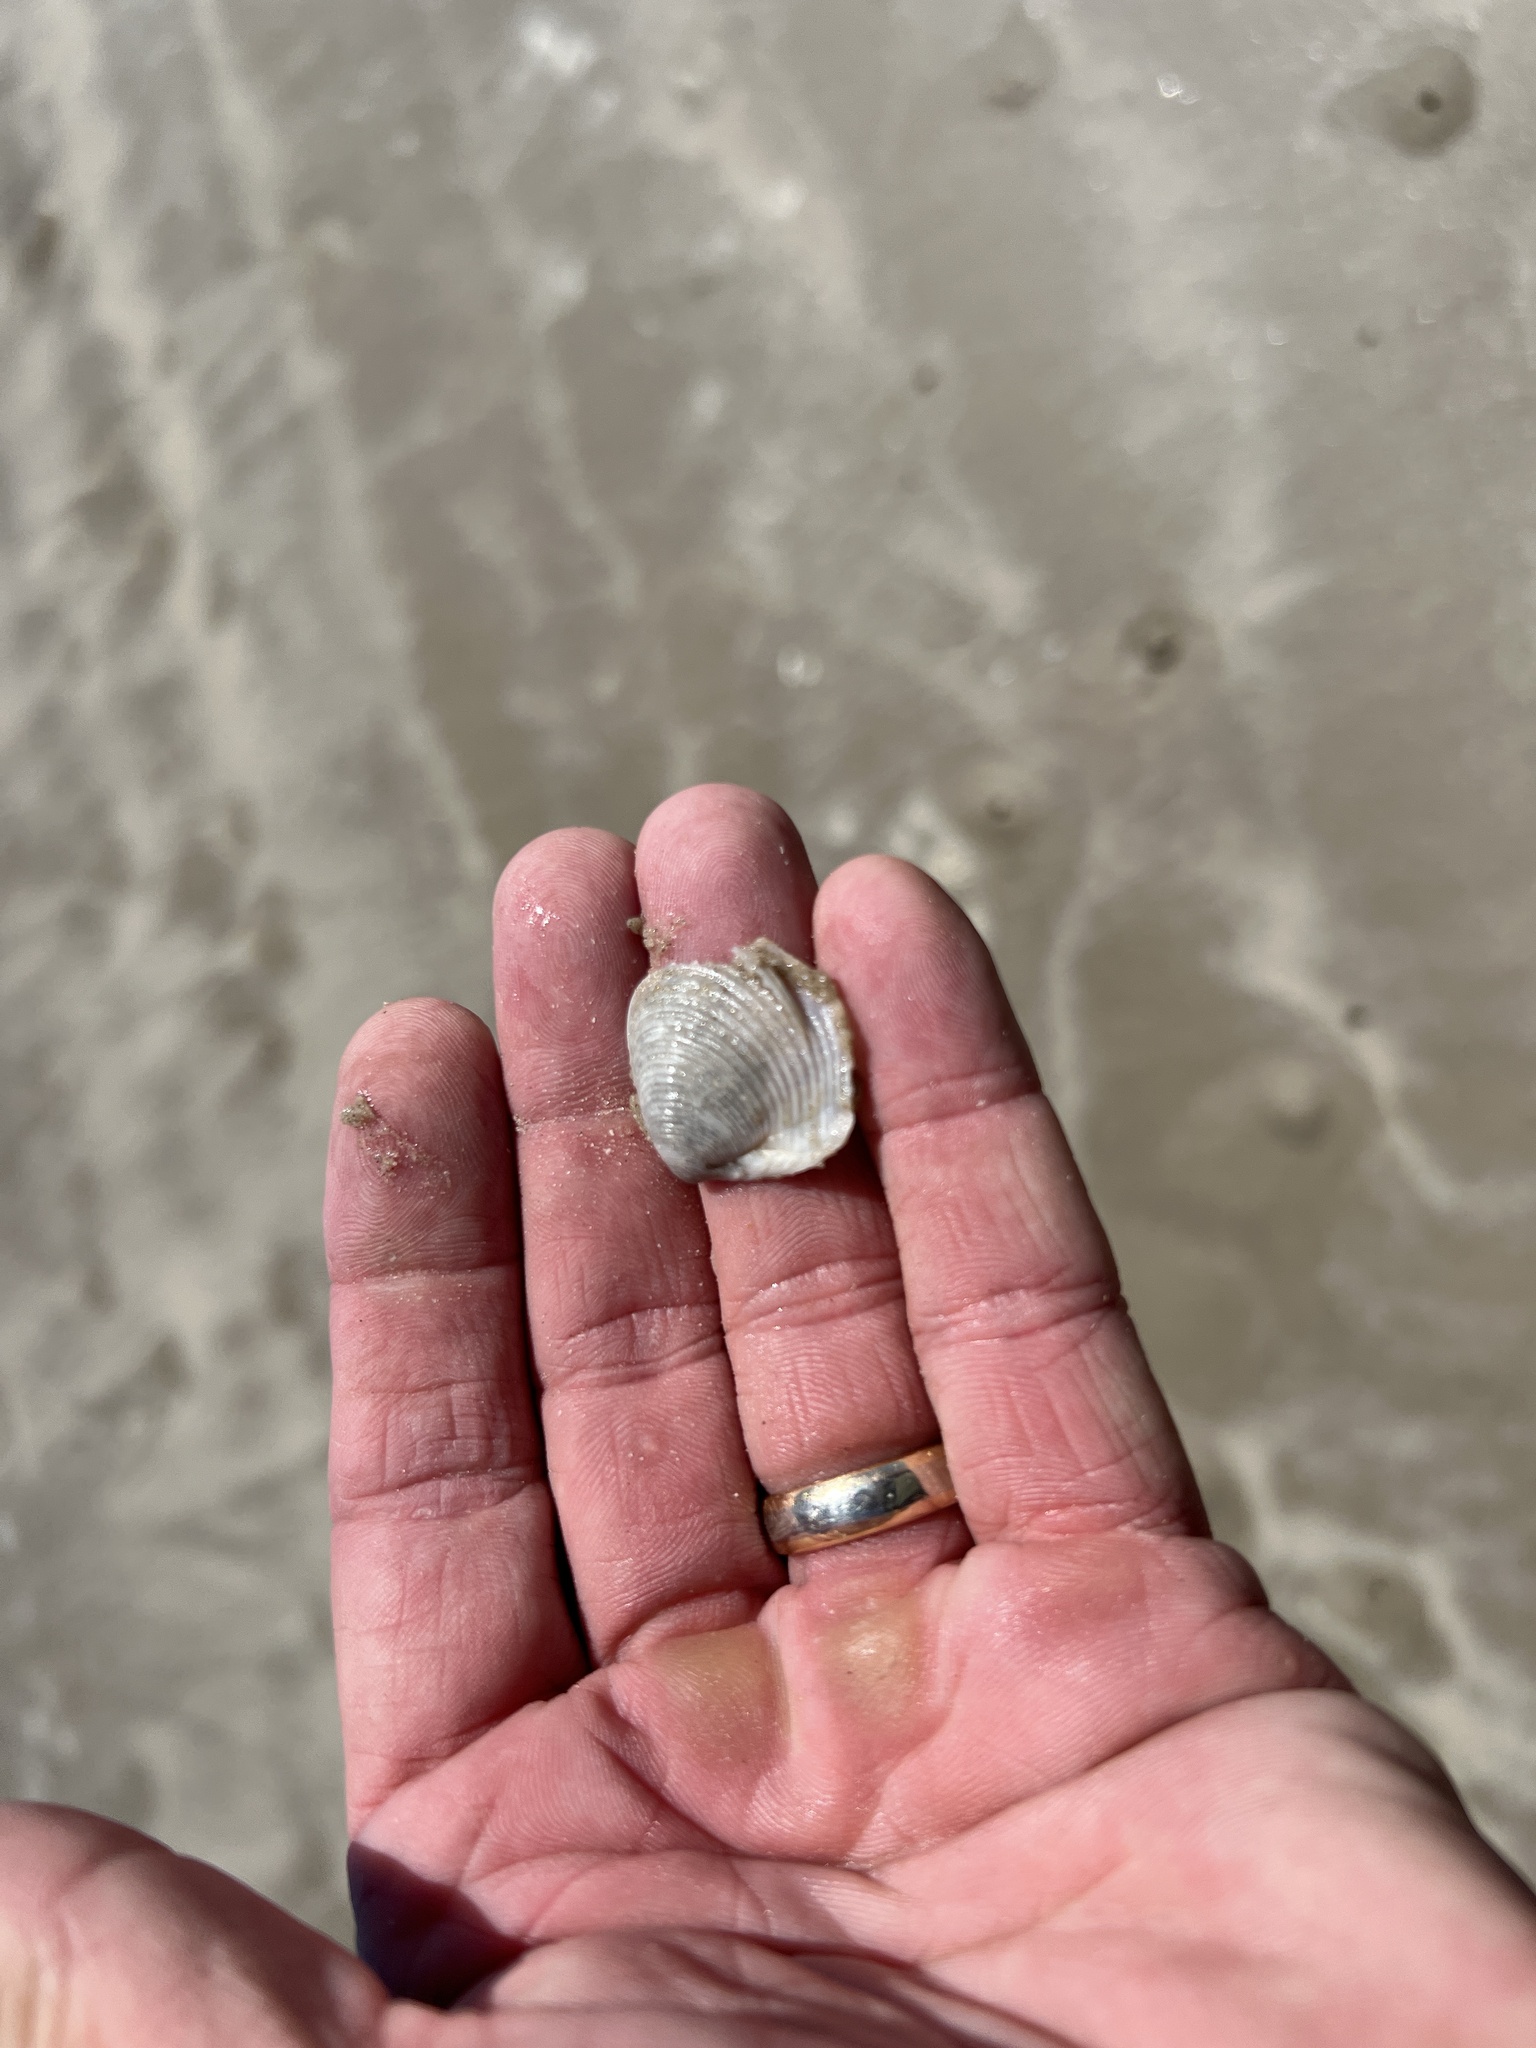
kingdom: Animalia
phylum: Mollusca
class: Bivalvia
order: Venerida
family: Anatinellidae
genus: Raeta
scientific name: Raeta plicatella
